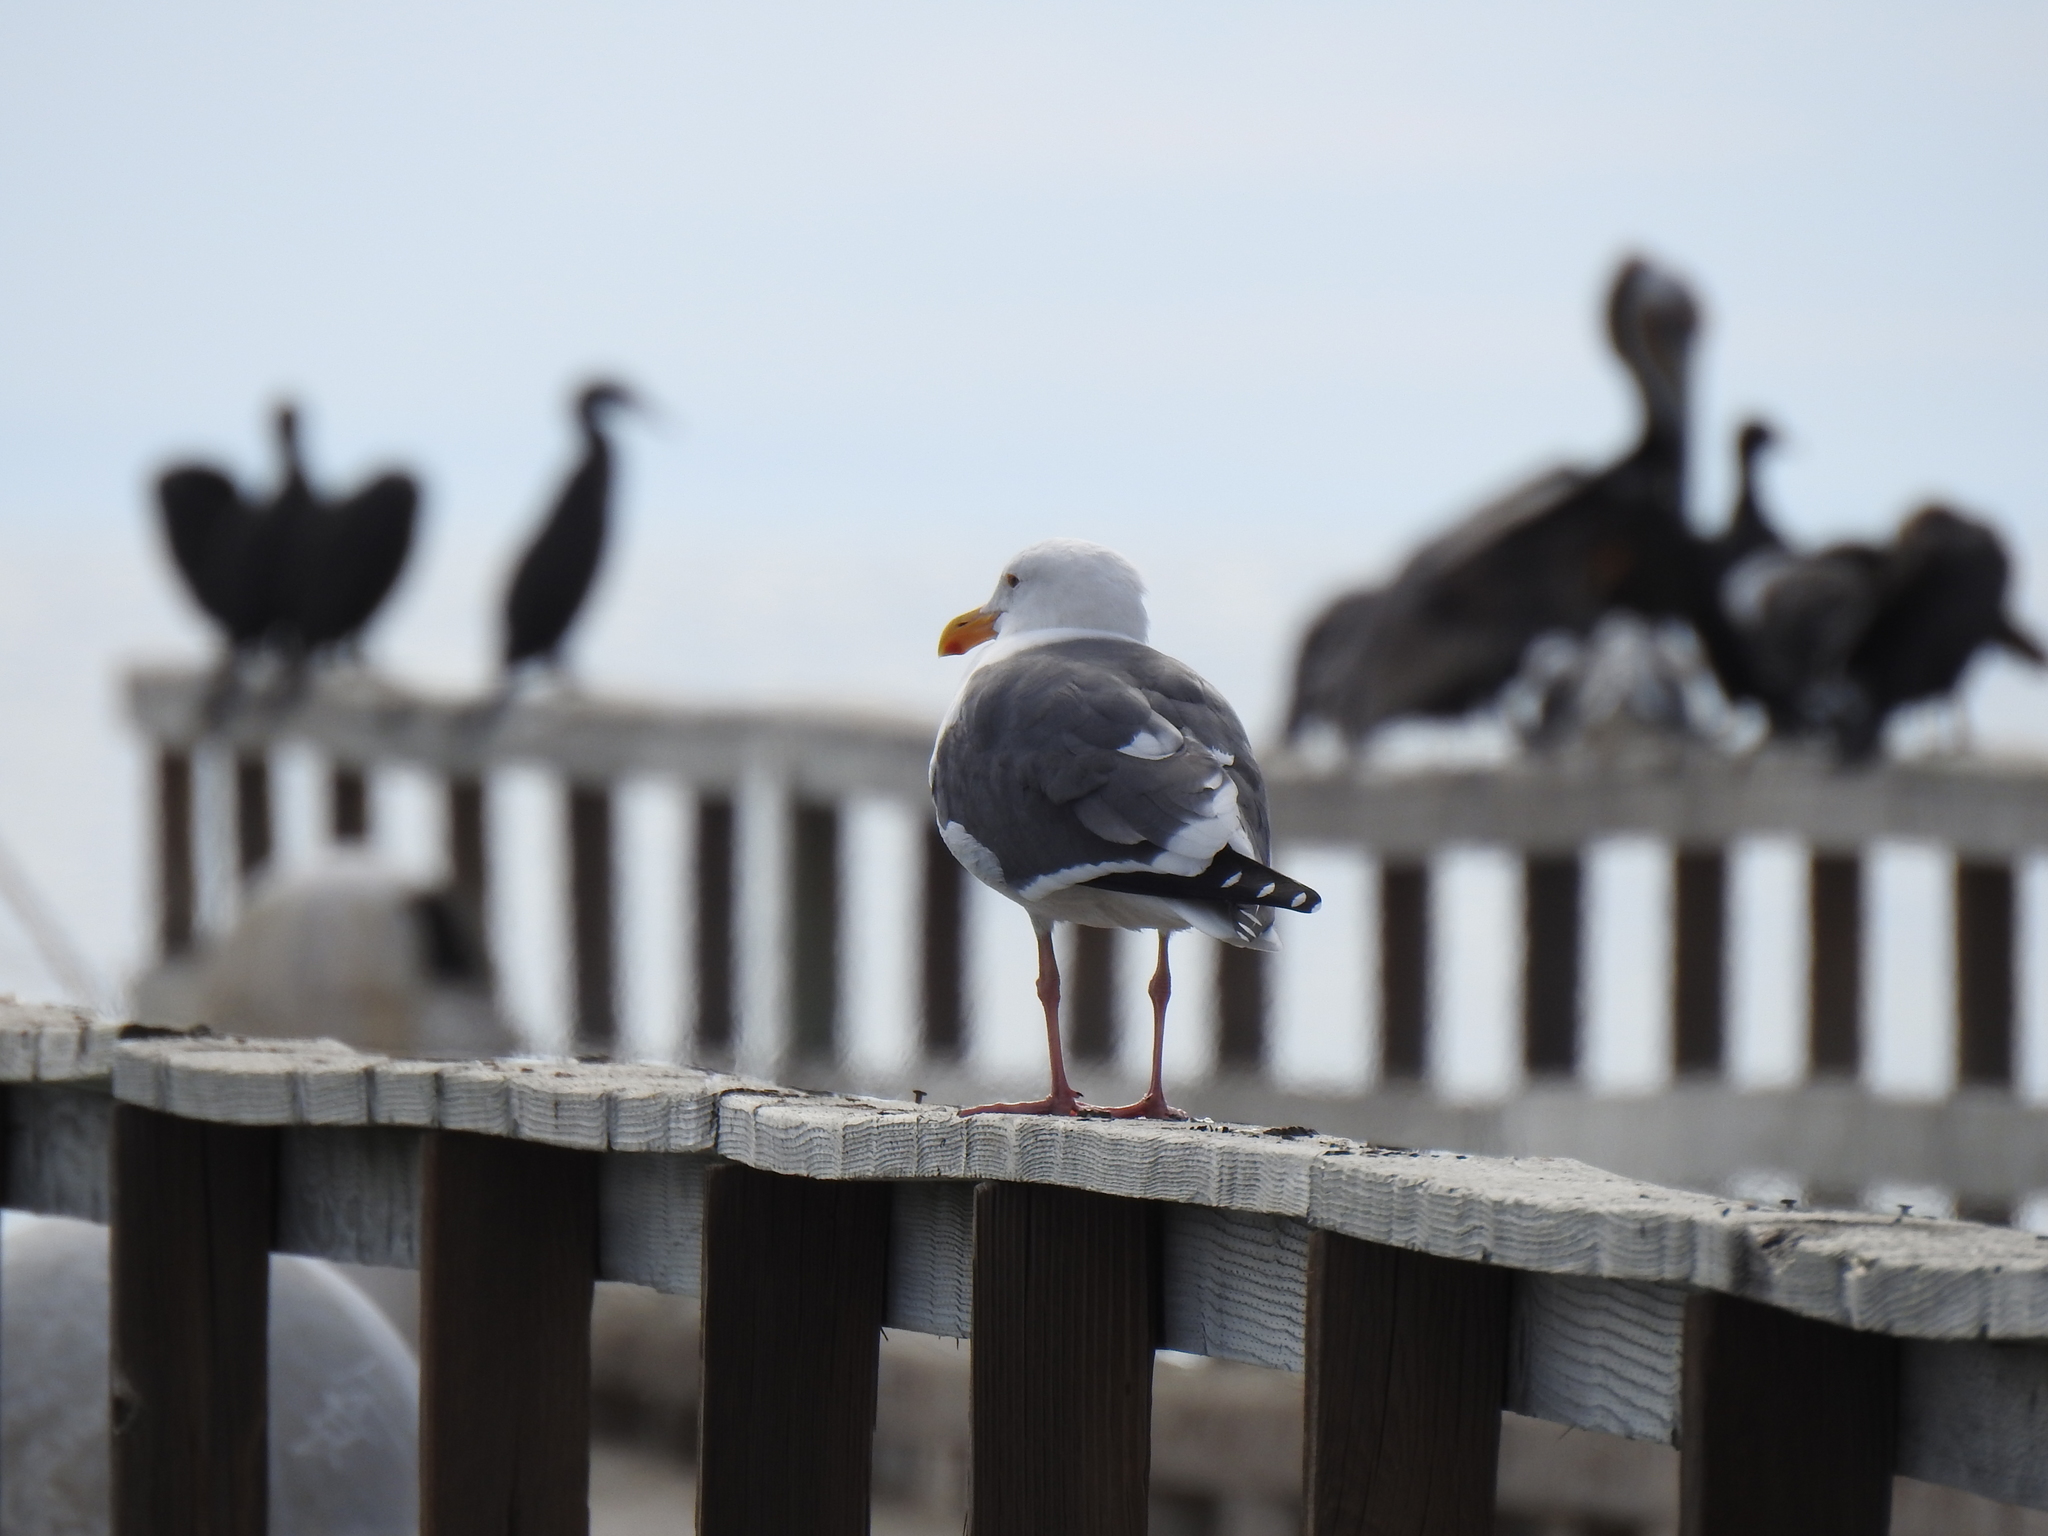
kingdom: Animalia
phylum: Chordata
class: Aves
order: Charadriiformes
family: Laridae
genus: Larus
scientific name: Larus occidentalis
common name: Western gull
